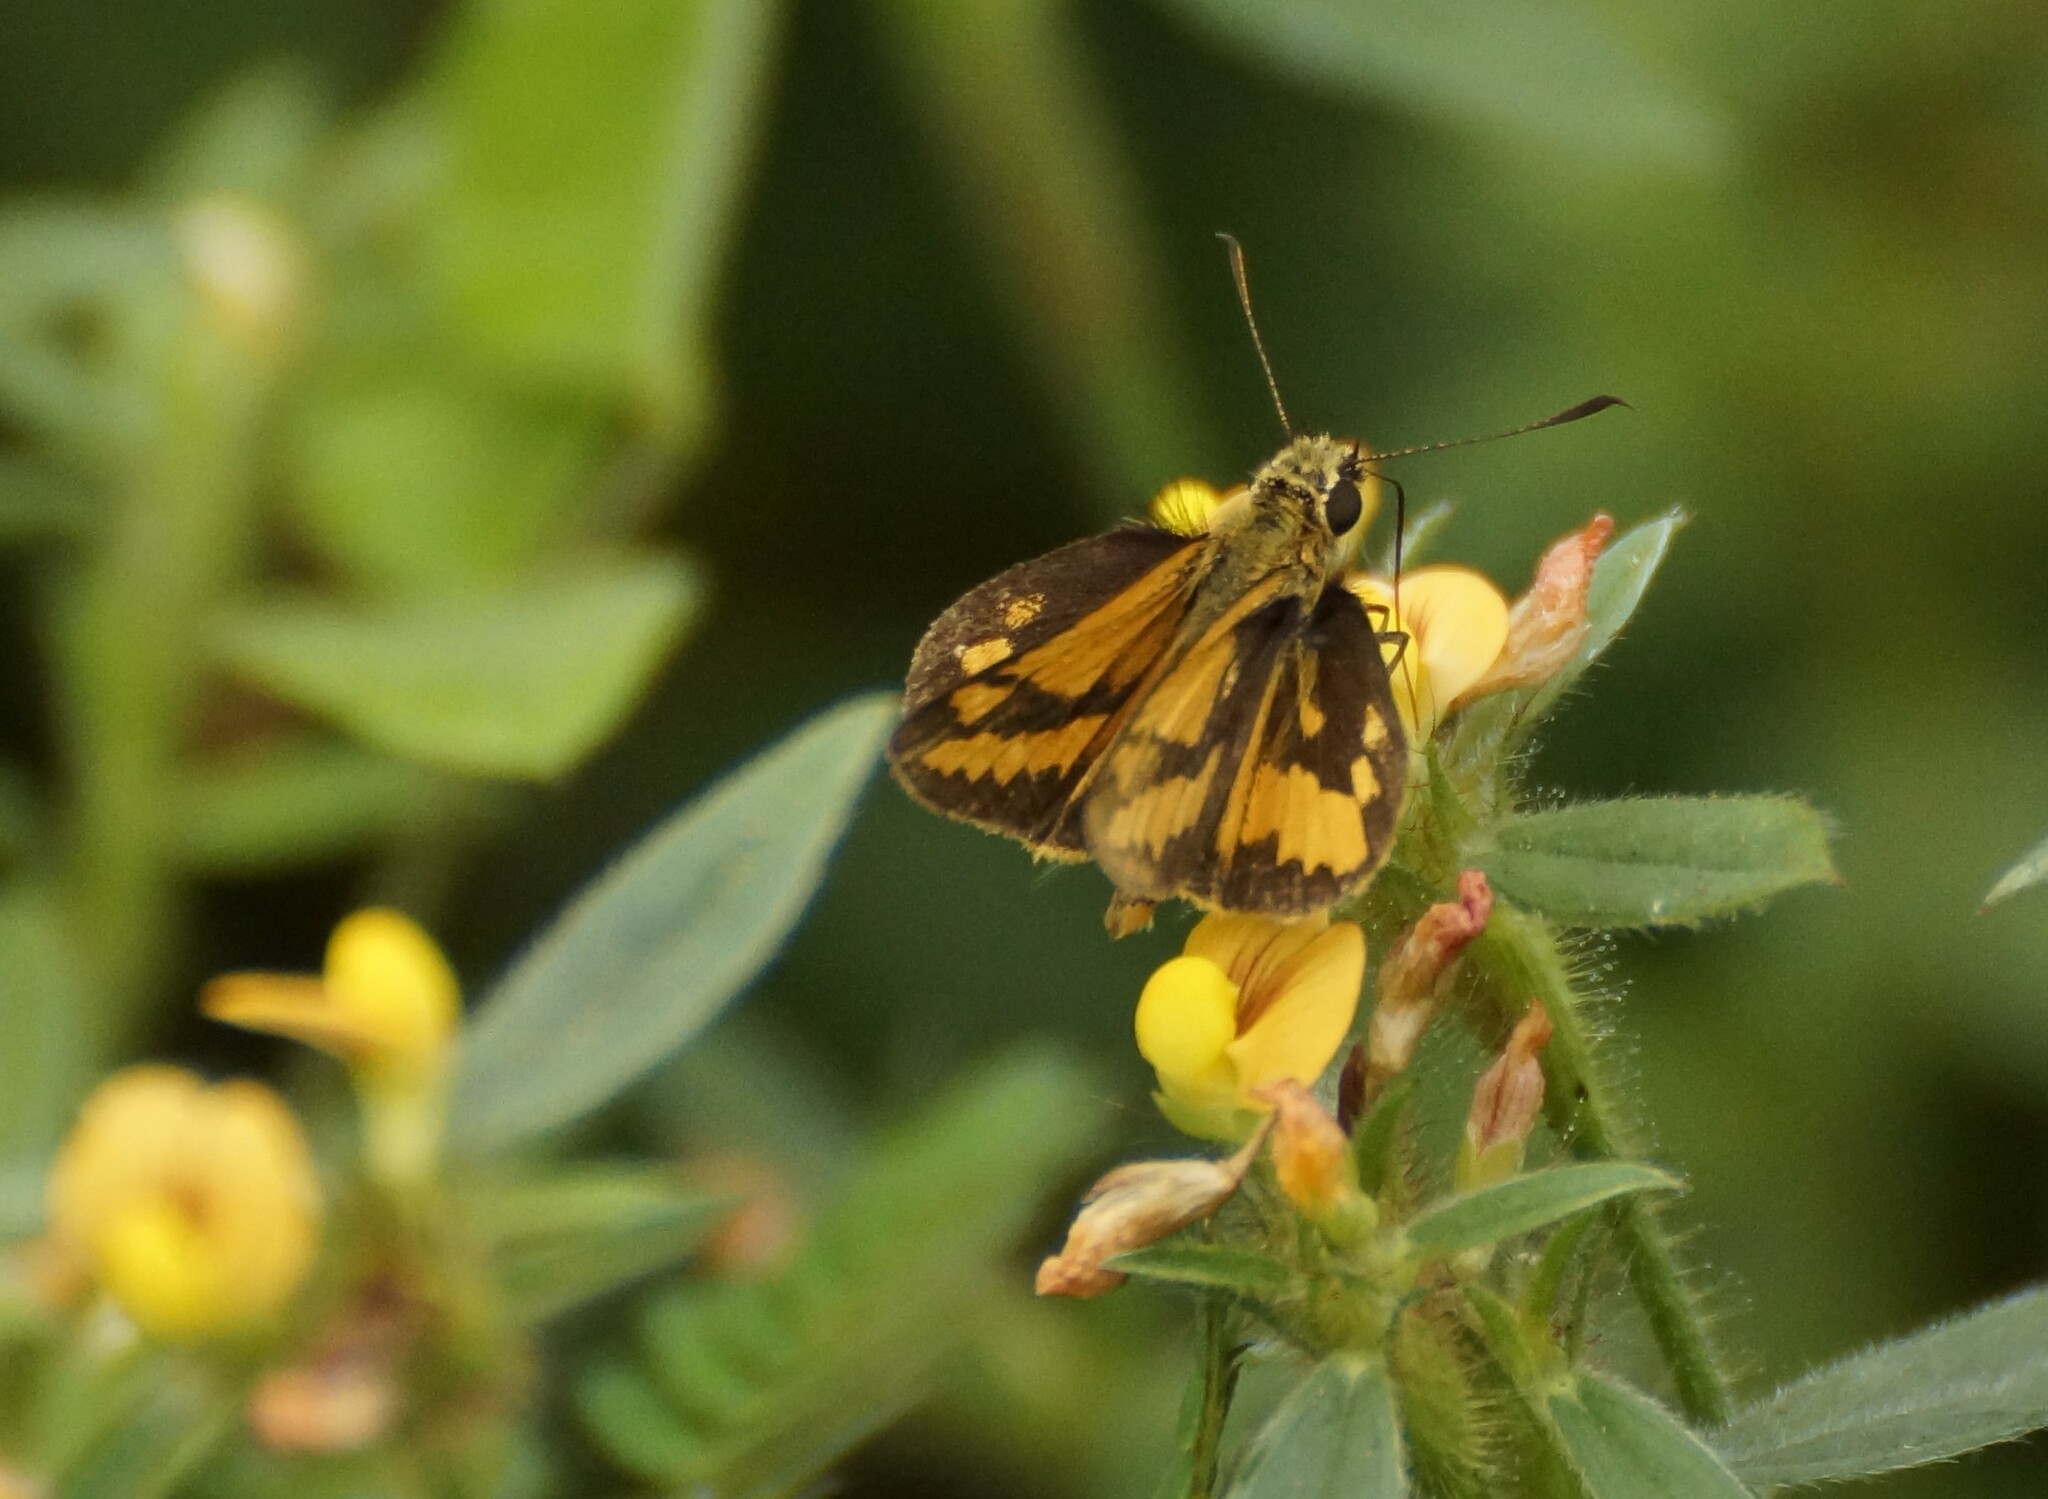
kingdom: Animalia
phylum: Arthropoda
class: Insecta
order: Lepidoptera
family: Hesperiidae
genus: Suniana
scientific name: Suniana sunias
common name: Wide-brand grass-dart
